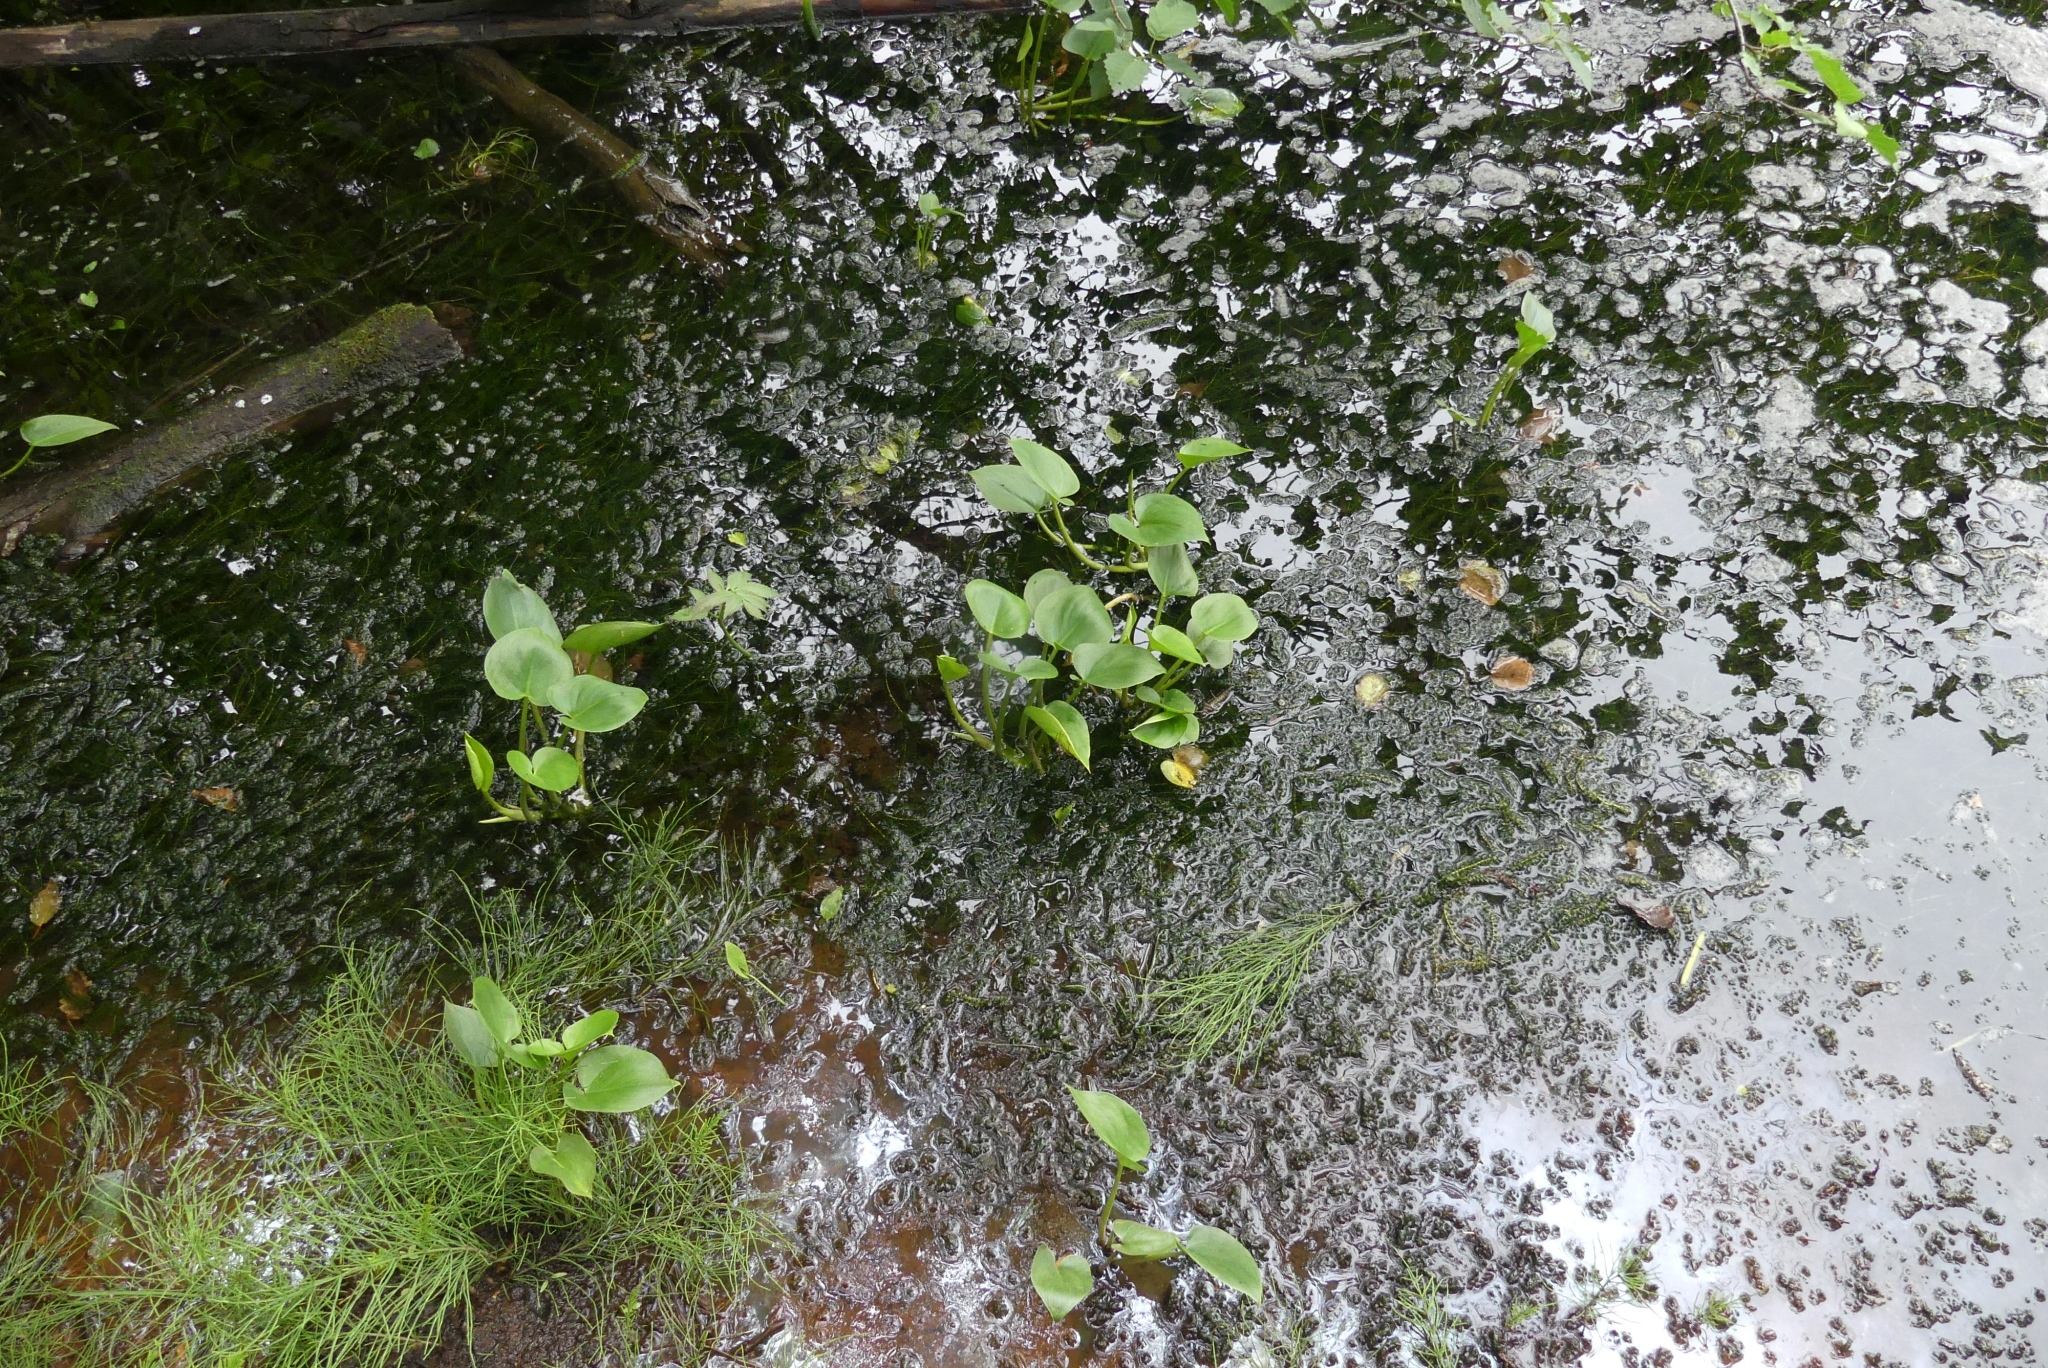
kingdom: Plantae
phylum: Tracheophyta
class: Liliopsida
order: Alismatales
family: Araceae
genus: Calla
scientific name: Calla palustris
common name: Bog arum
